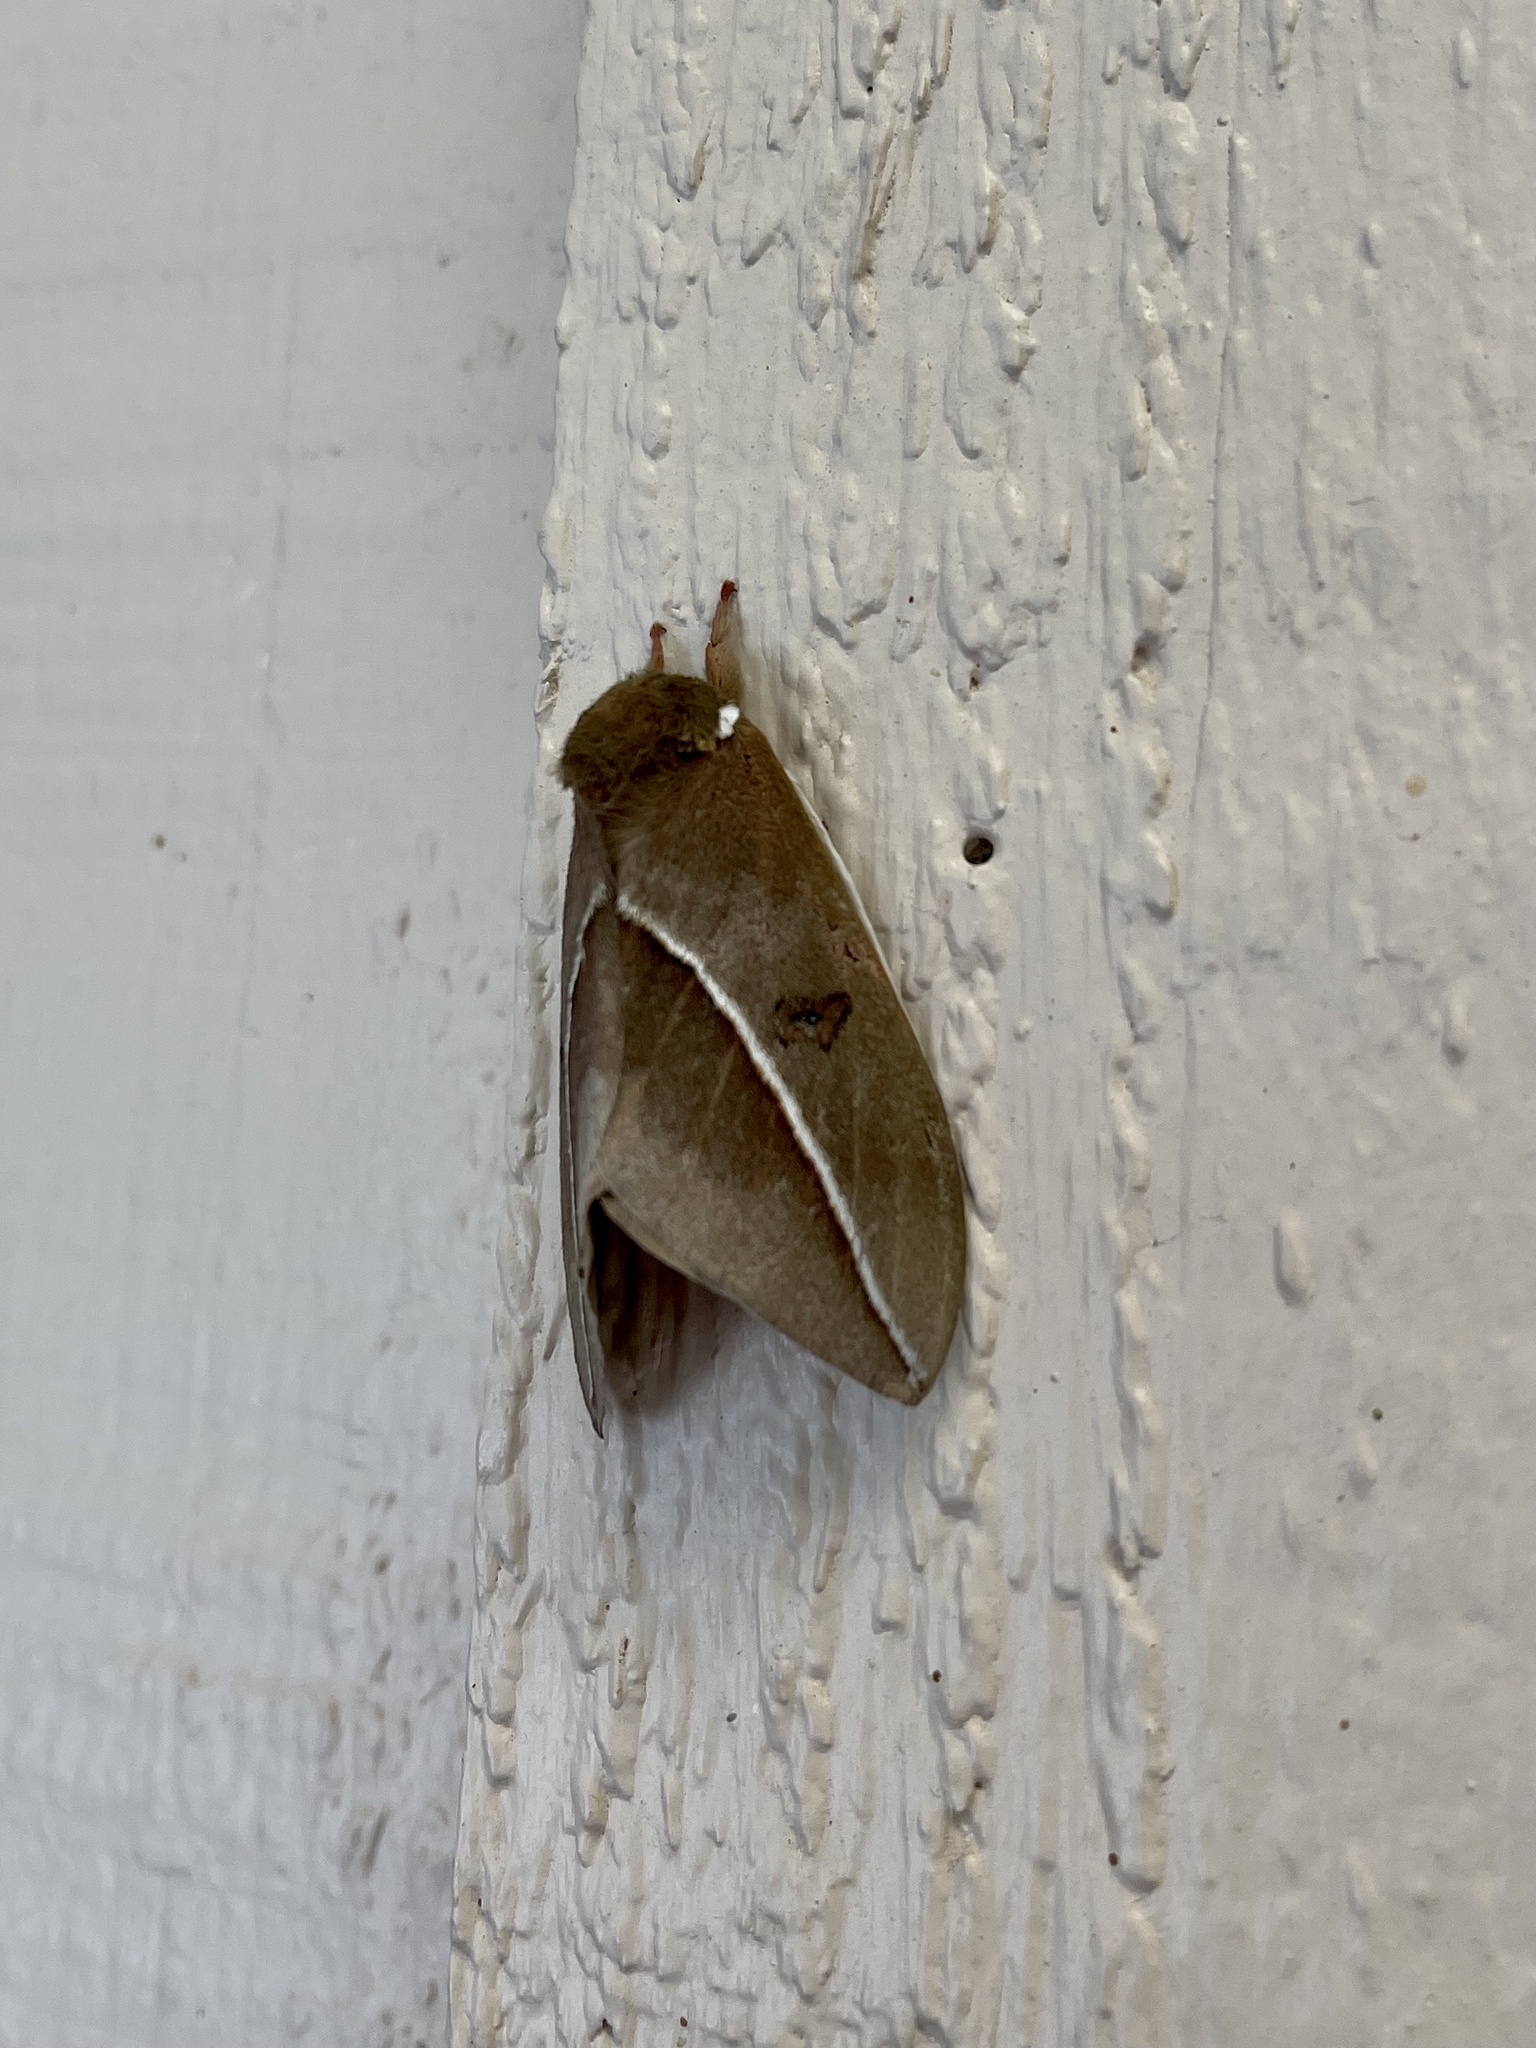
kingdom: Animalia
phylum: Arthropoda
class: Insecta
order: Lepidoptera
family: Saturniidae
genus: Automeris
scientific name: Automeris zephyria
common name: Zephyr eyed silkmoth
